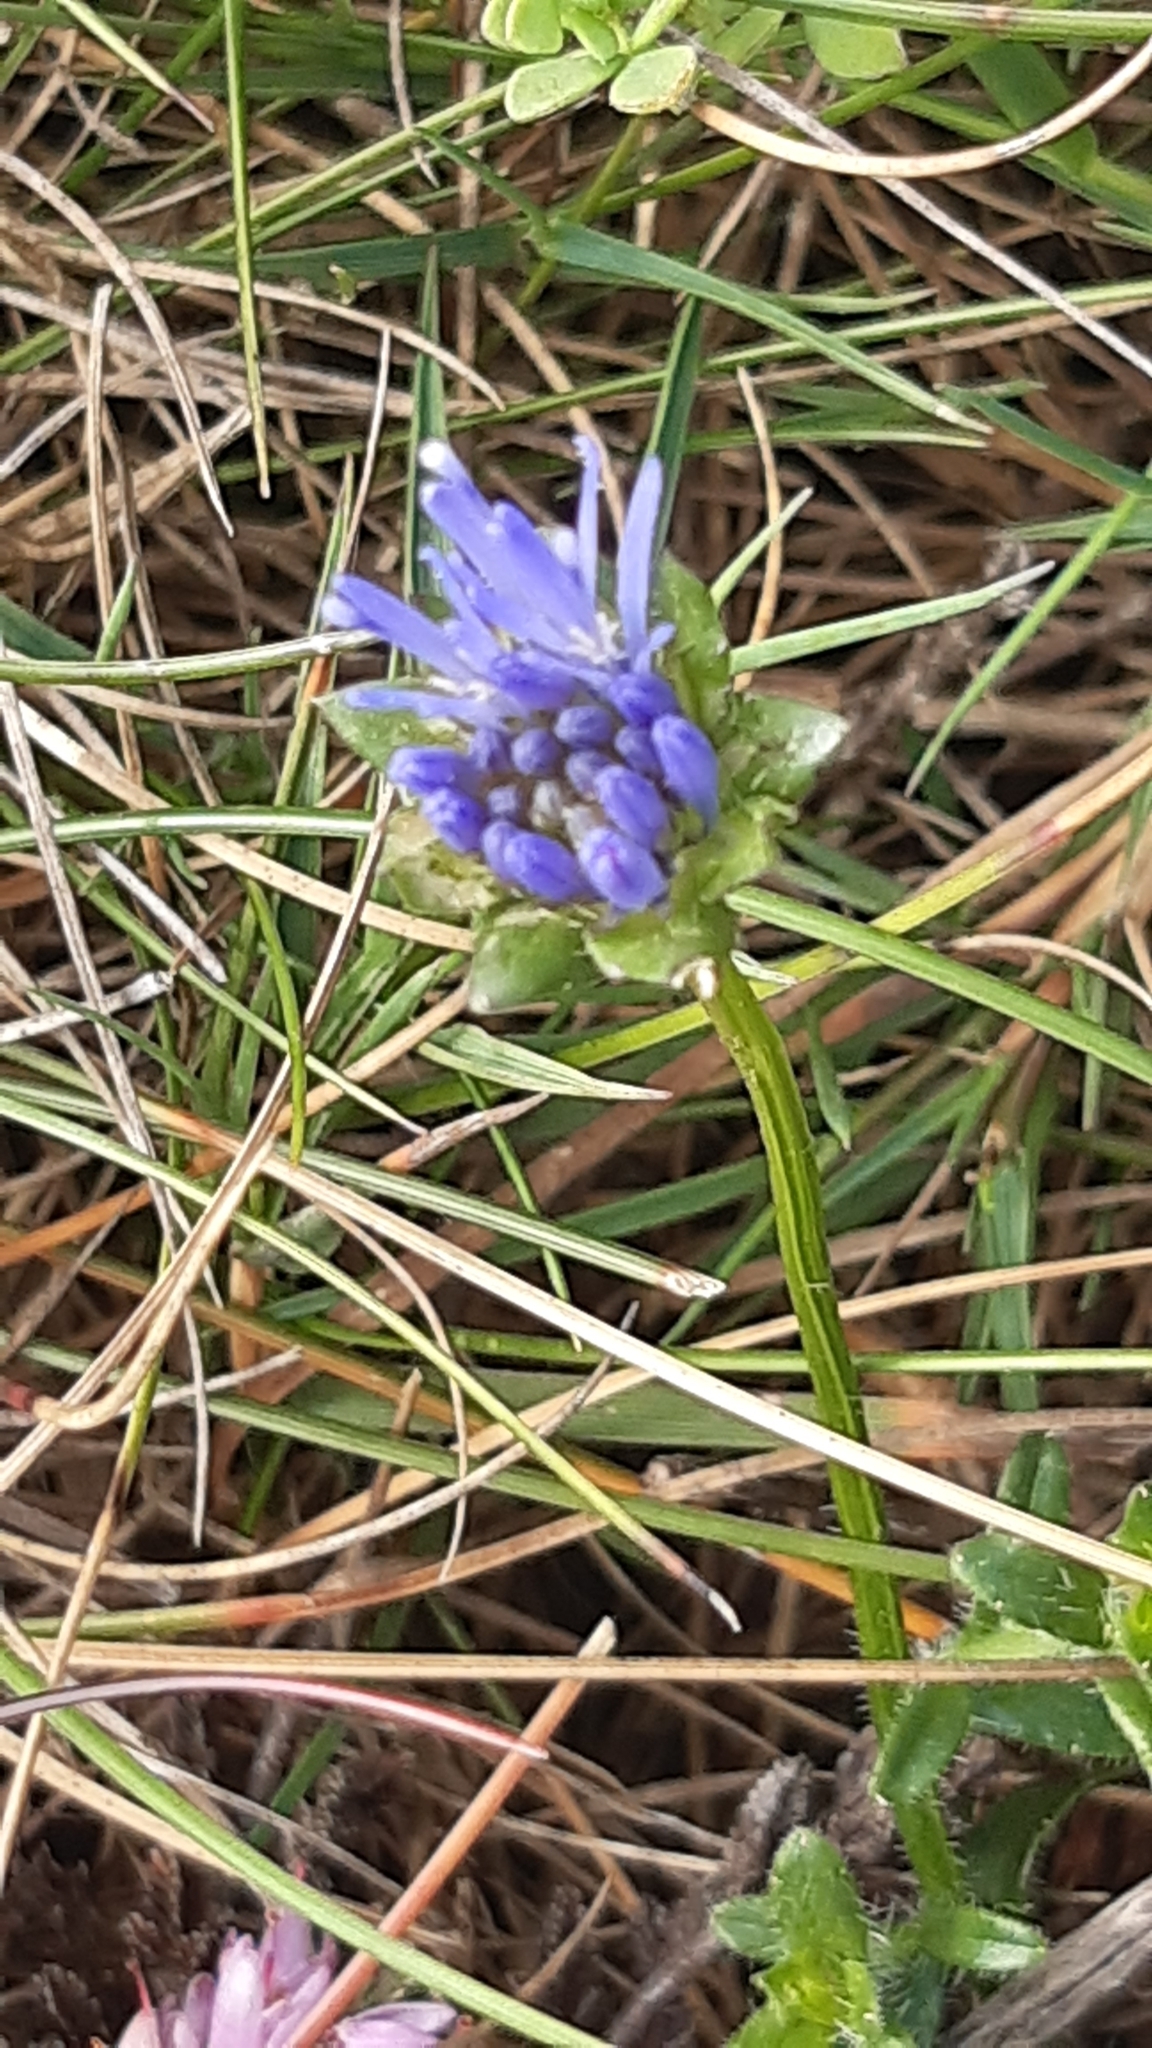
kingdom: Plantae
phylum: Tracheophyta
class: Magnoliopsida
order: Asterales
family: Campanulaceae
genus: Jasione
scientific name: Jasione montana
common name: Sheep's-bit
